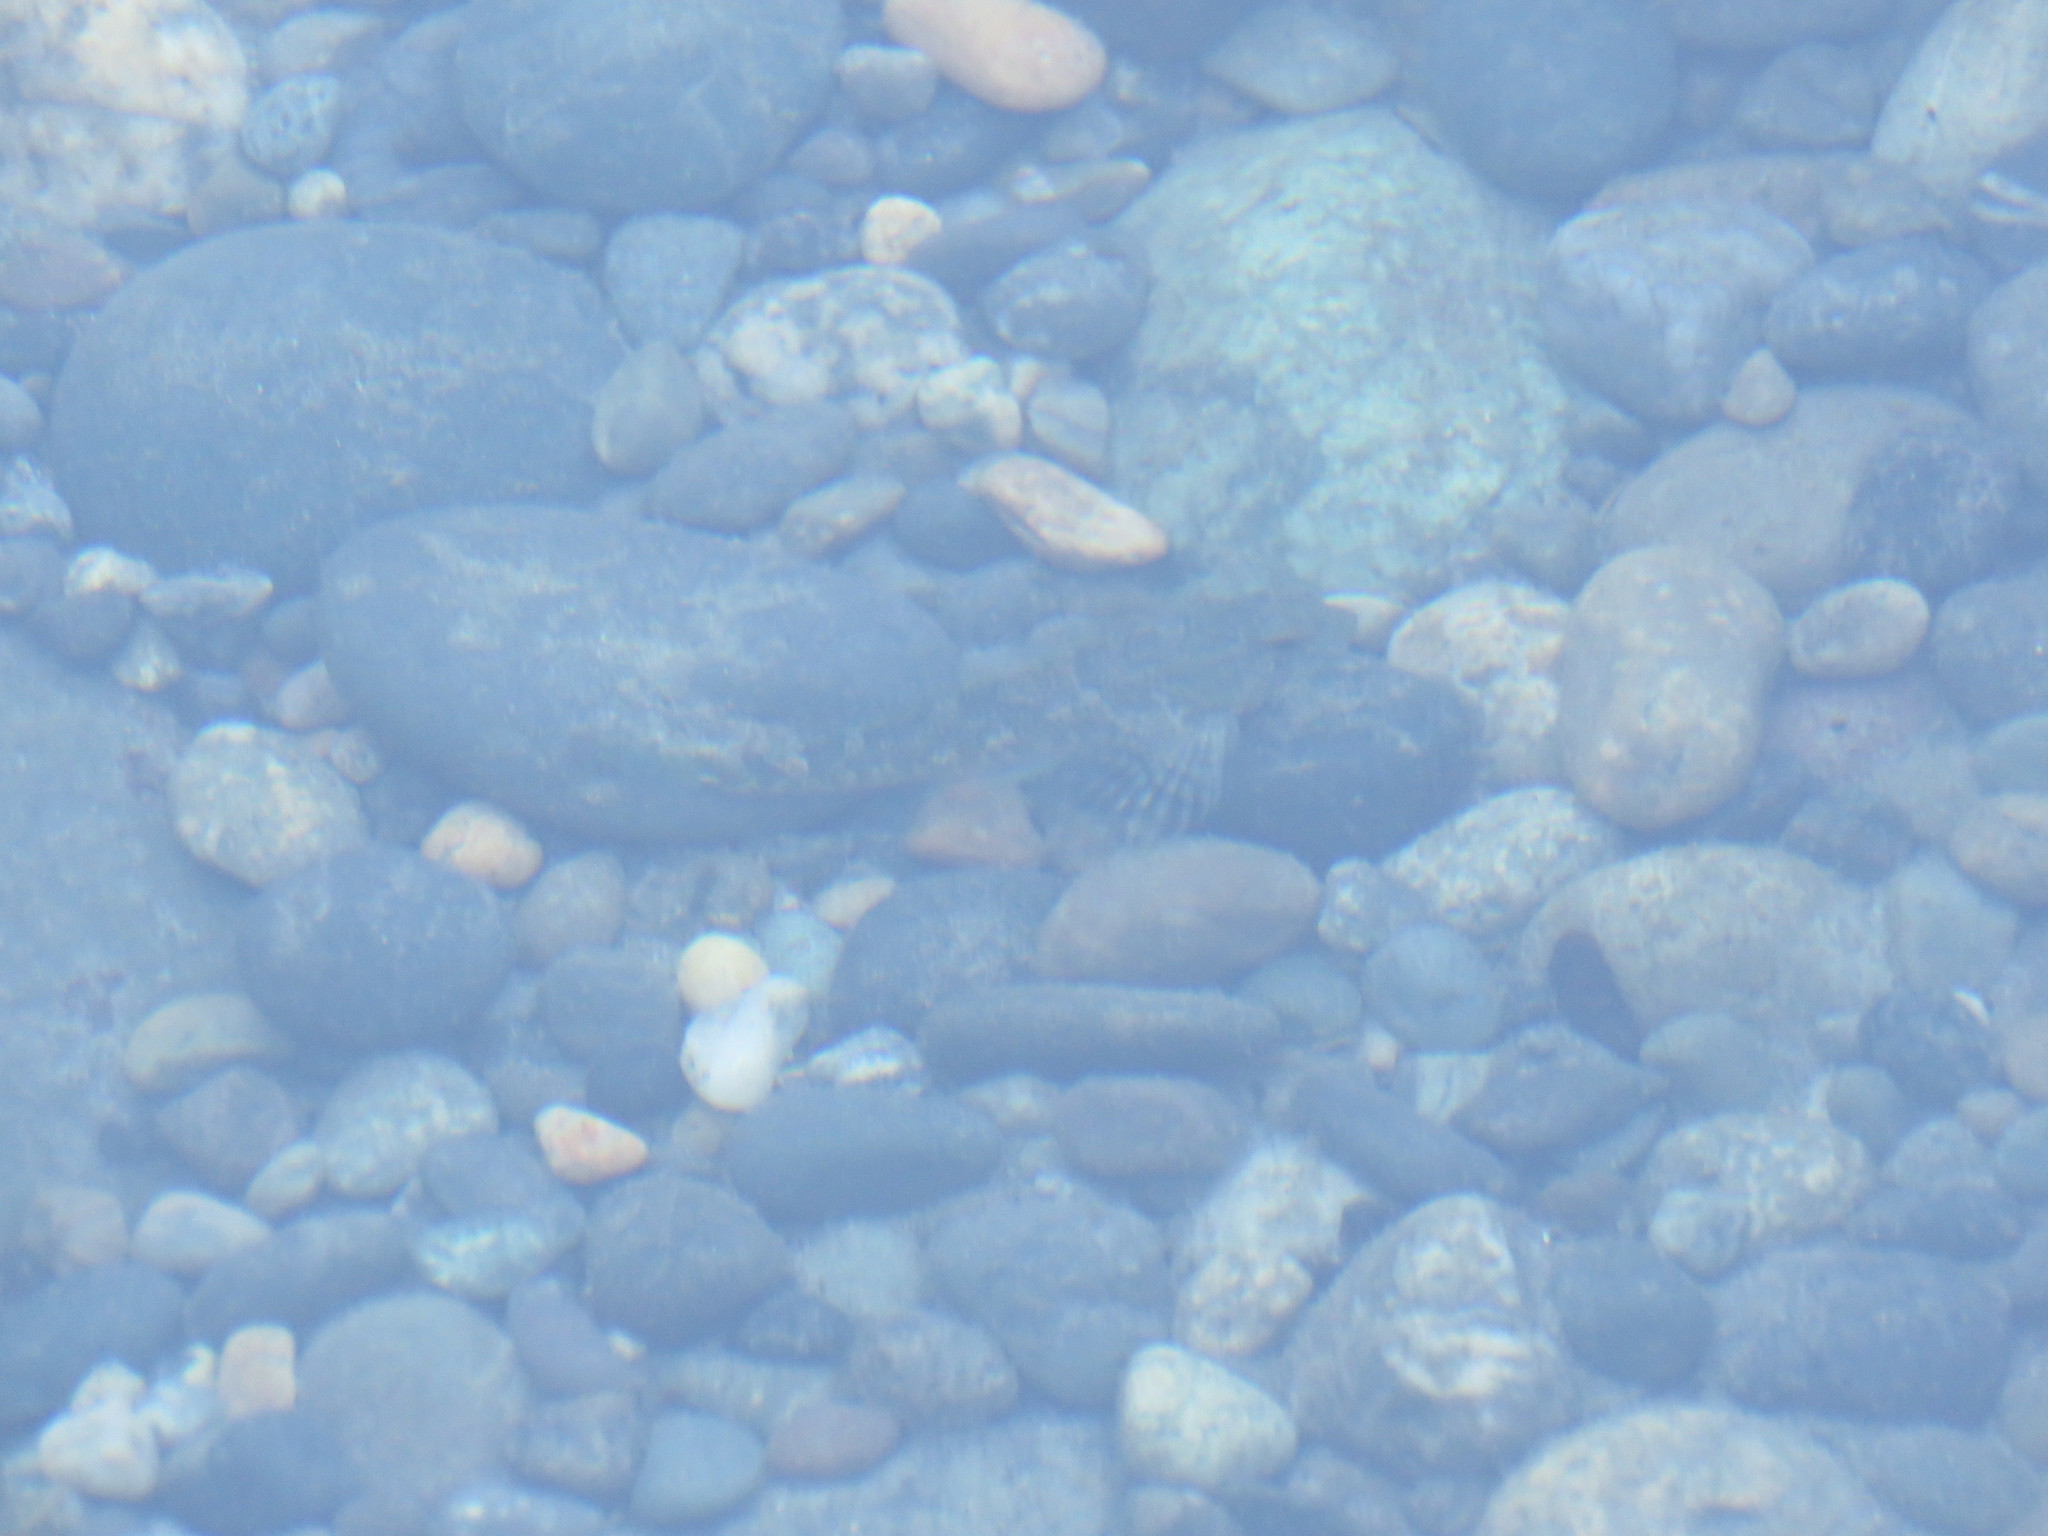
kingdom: Animalia
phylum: Chordata
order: Scorpaeniformes
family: Cottidae
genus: Oligocottus
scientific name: Oligocottus maculosus
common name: Tidepool sculpin
